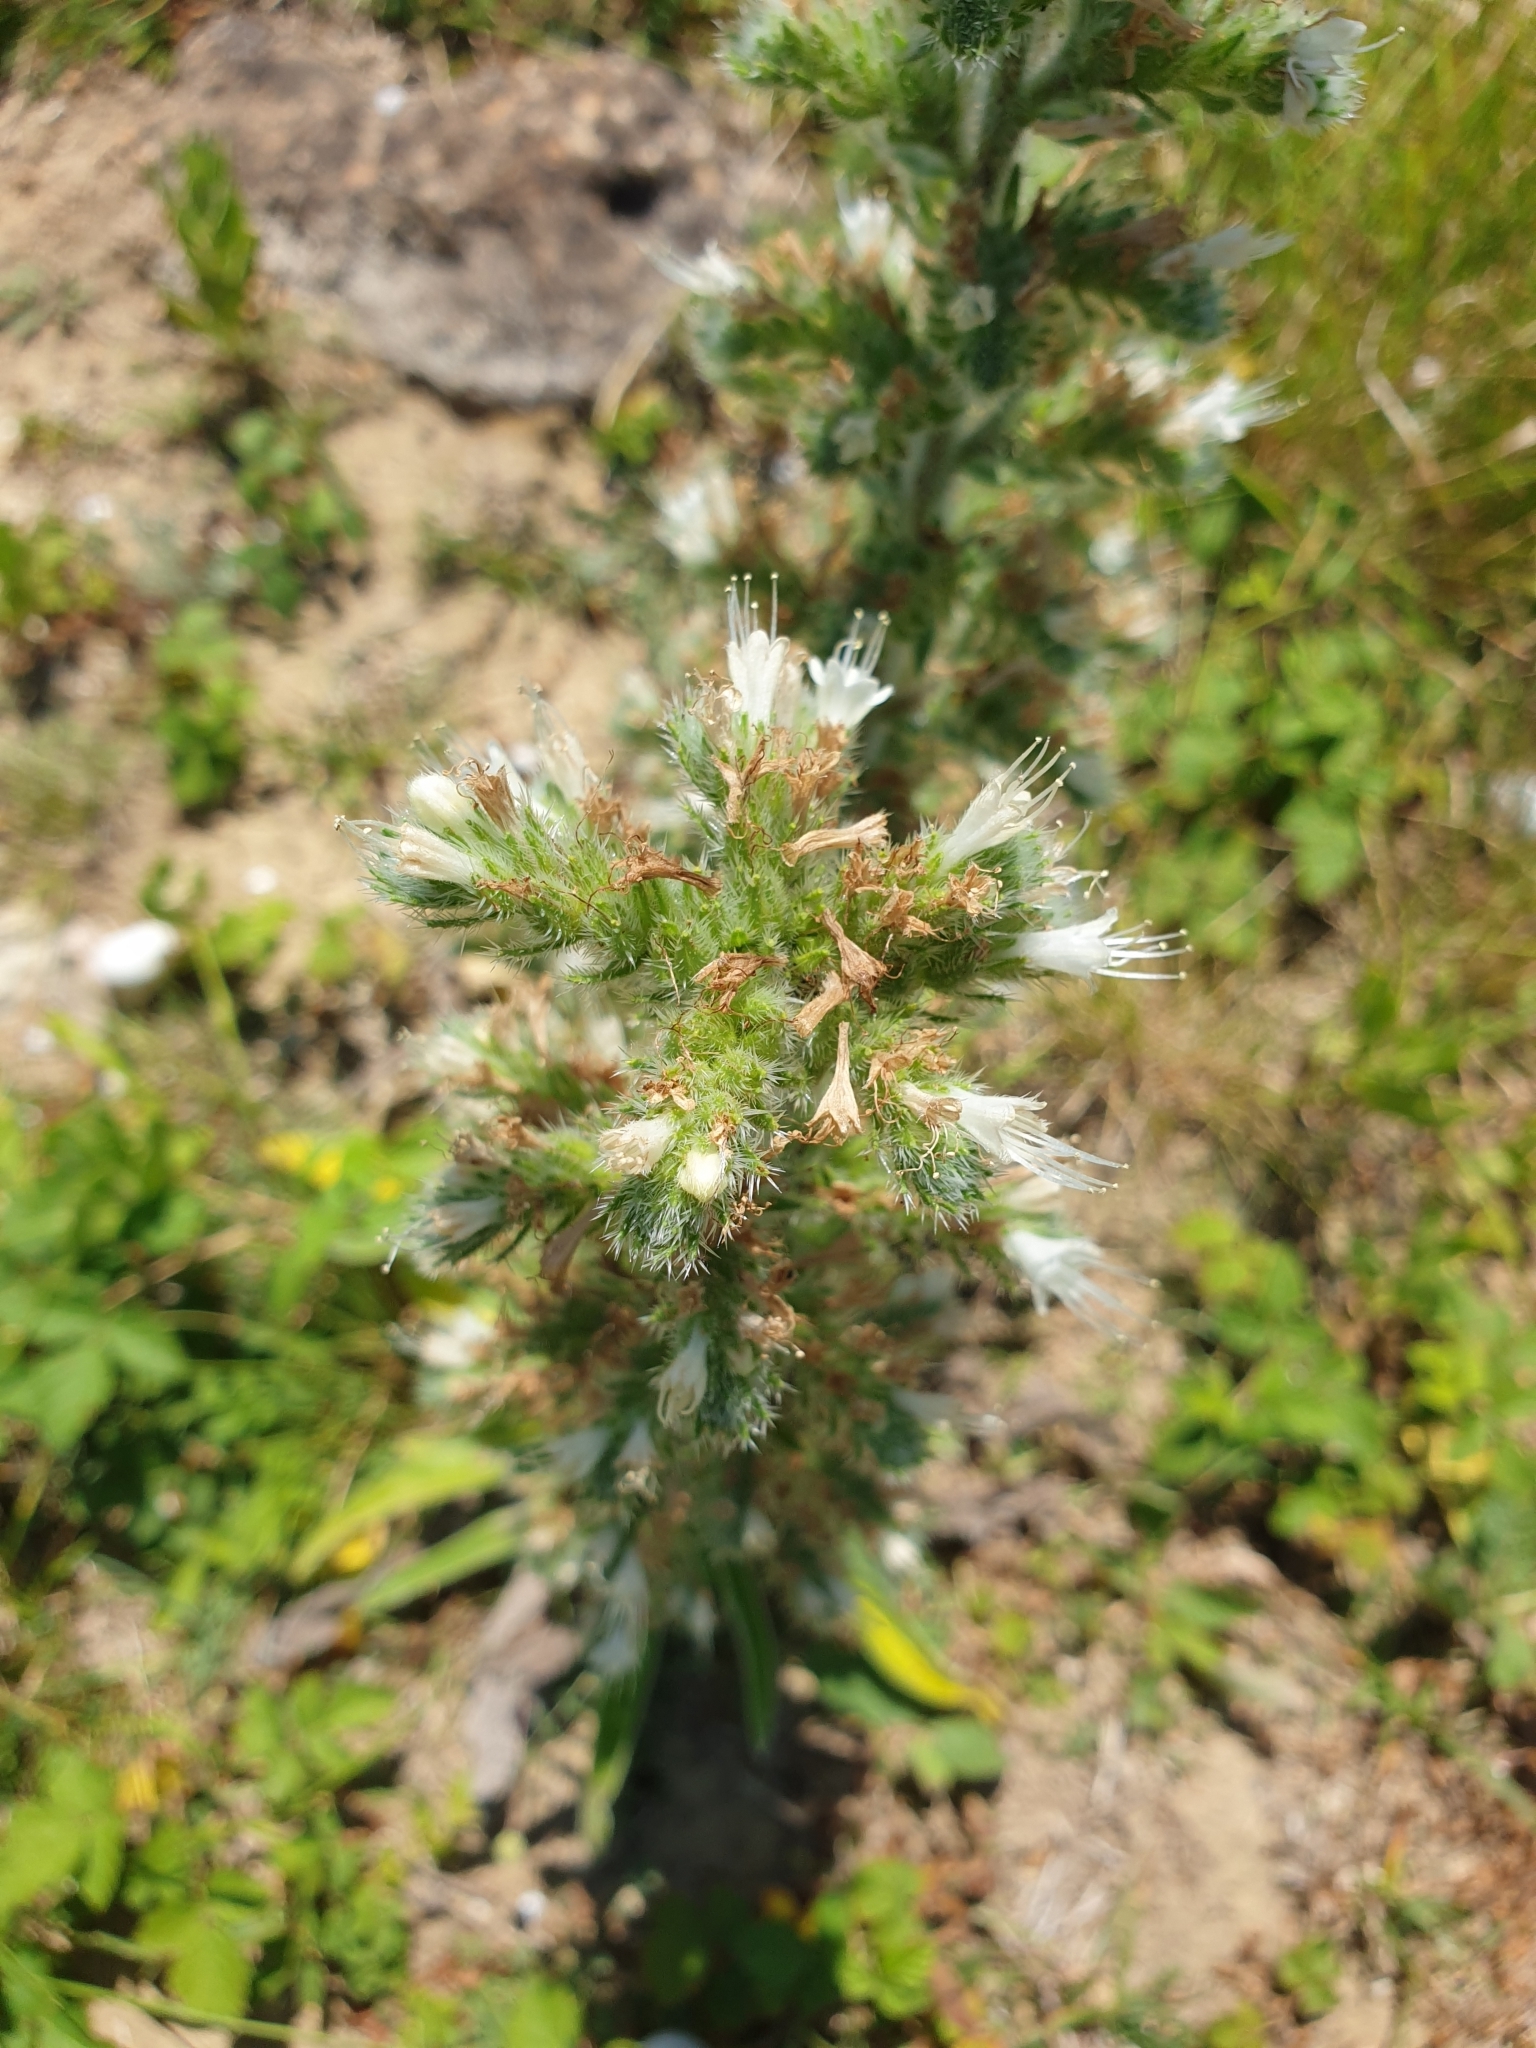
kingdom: Plantae
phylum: Tracheophyta
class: Magnoliopsida
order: Boraginales
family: Boraginaceae
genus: Echium
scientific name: Echium italicum
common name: Italian viper's bugloss
